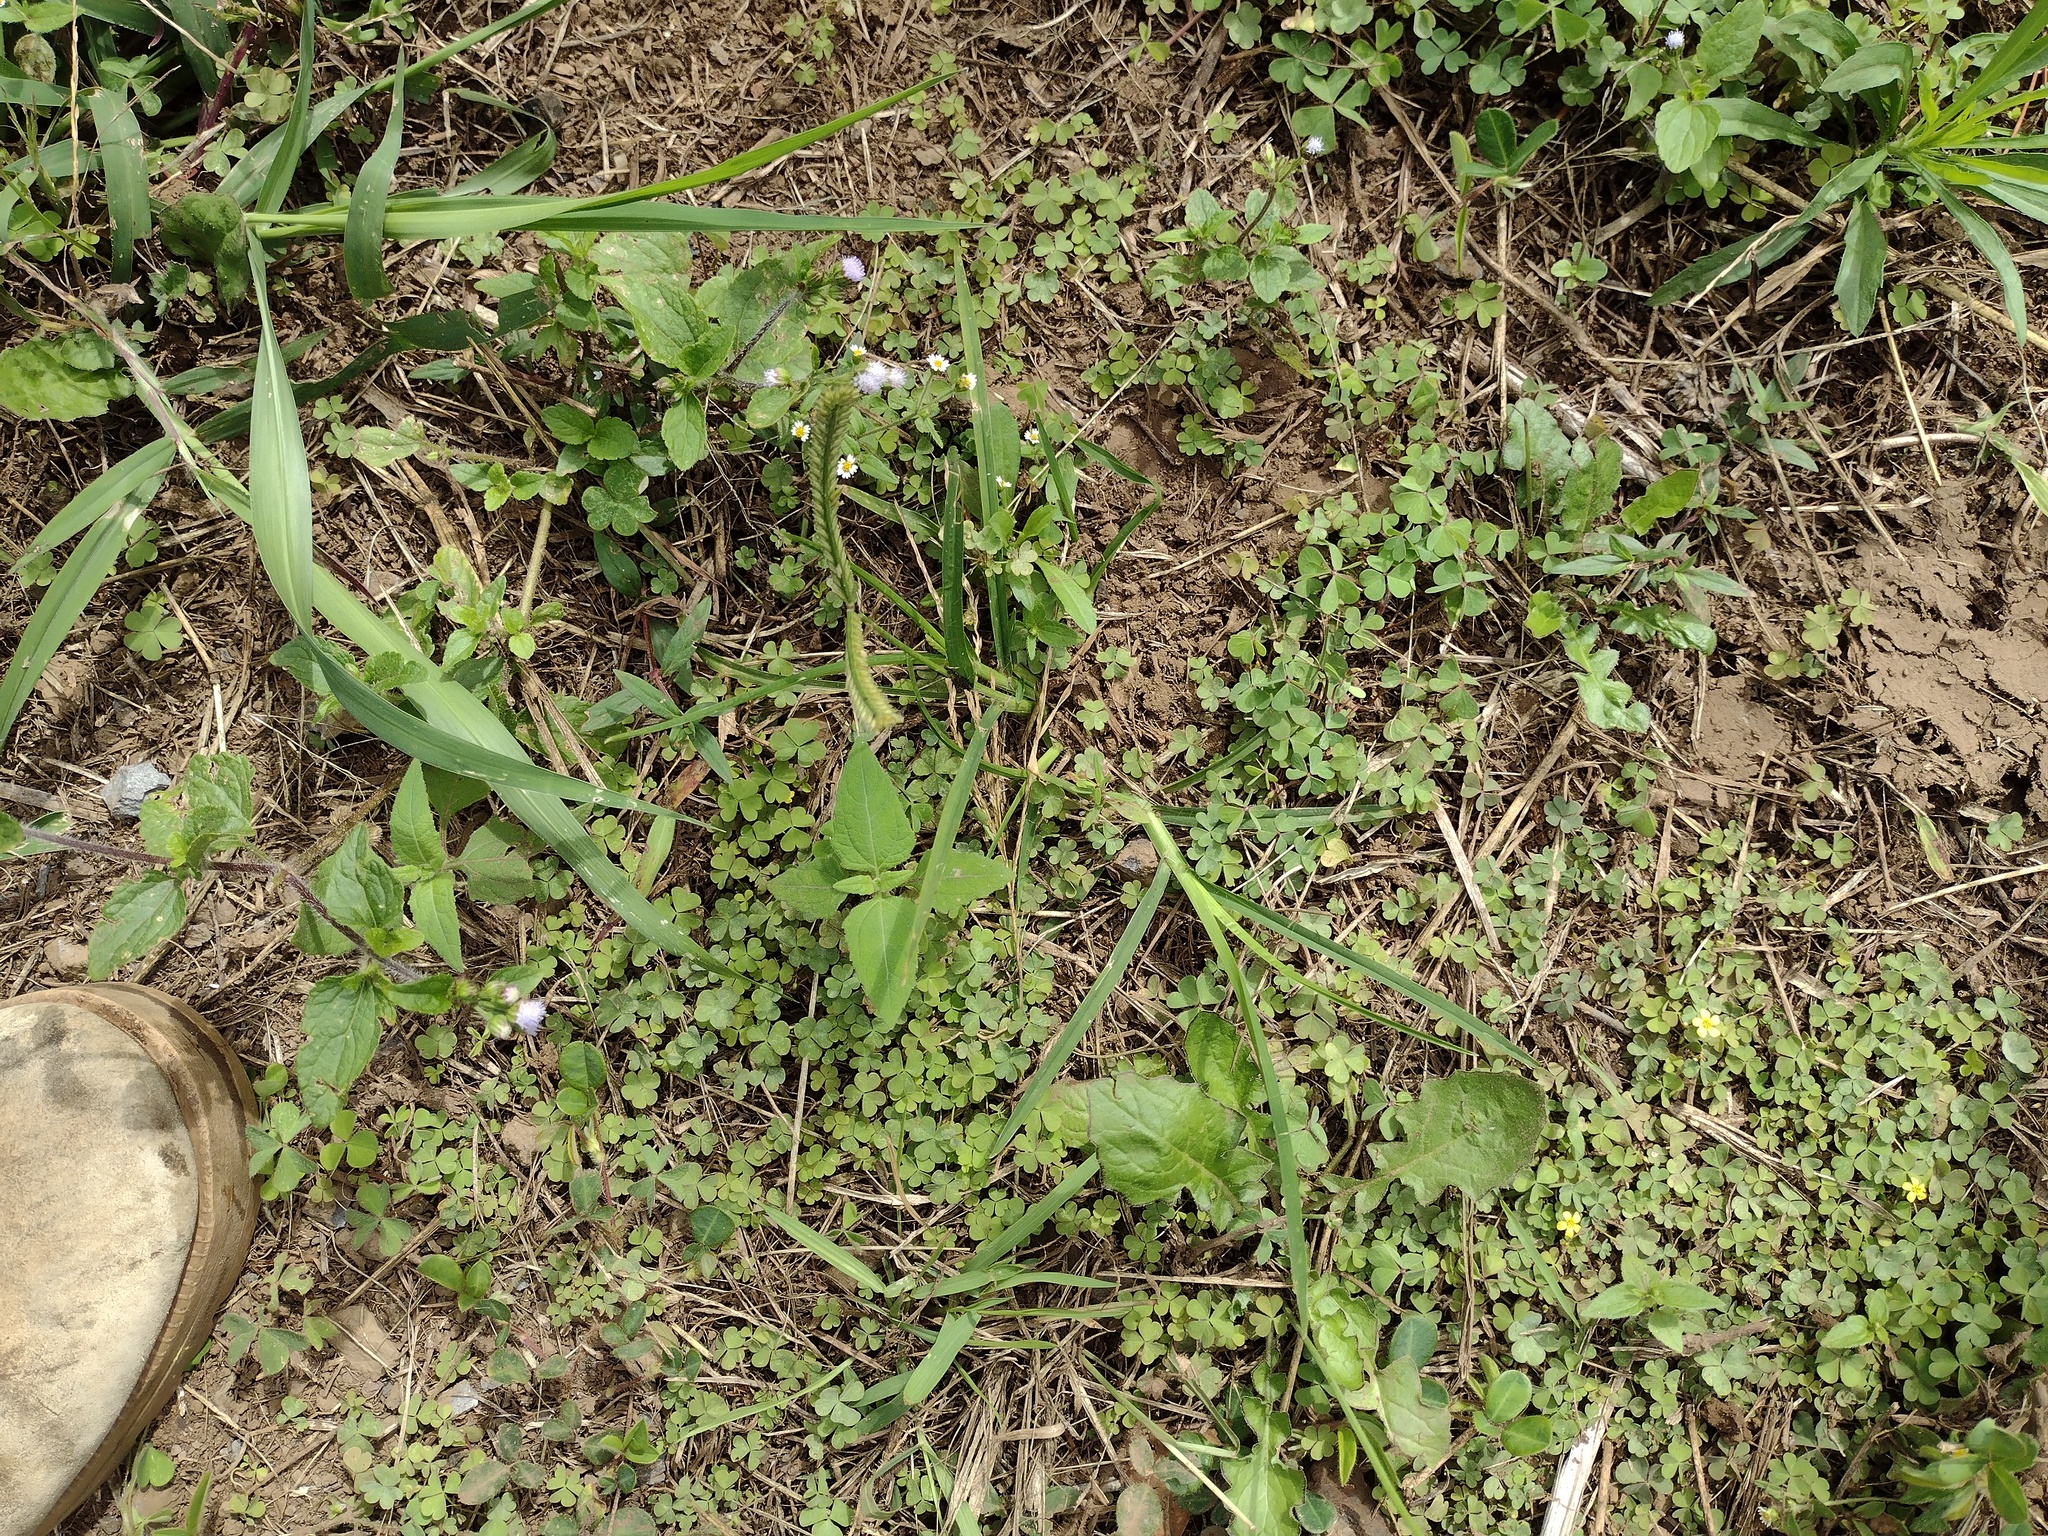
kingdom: Plantae
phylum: Tracheophyta
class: Magnoliopsida
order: Asterales
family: Asteraceae
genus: Ageratum
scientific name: Ageratum conyzoides
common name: Tropical whiteweed
